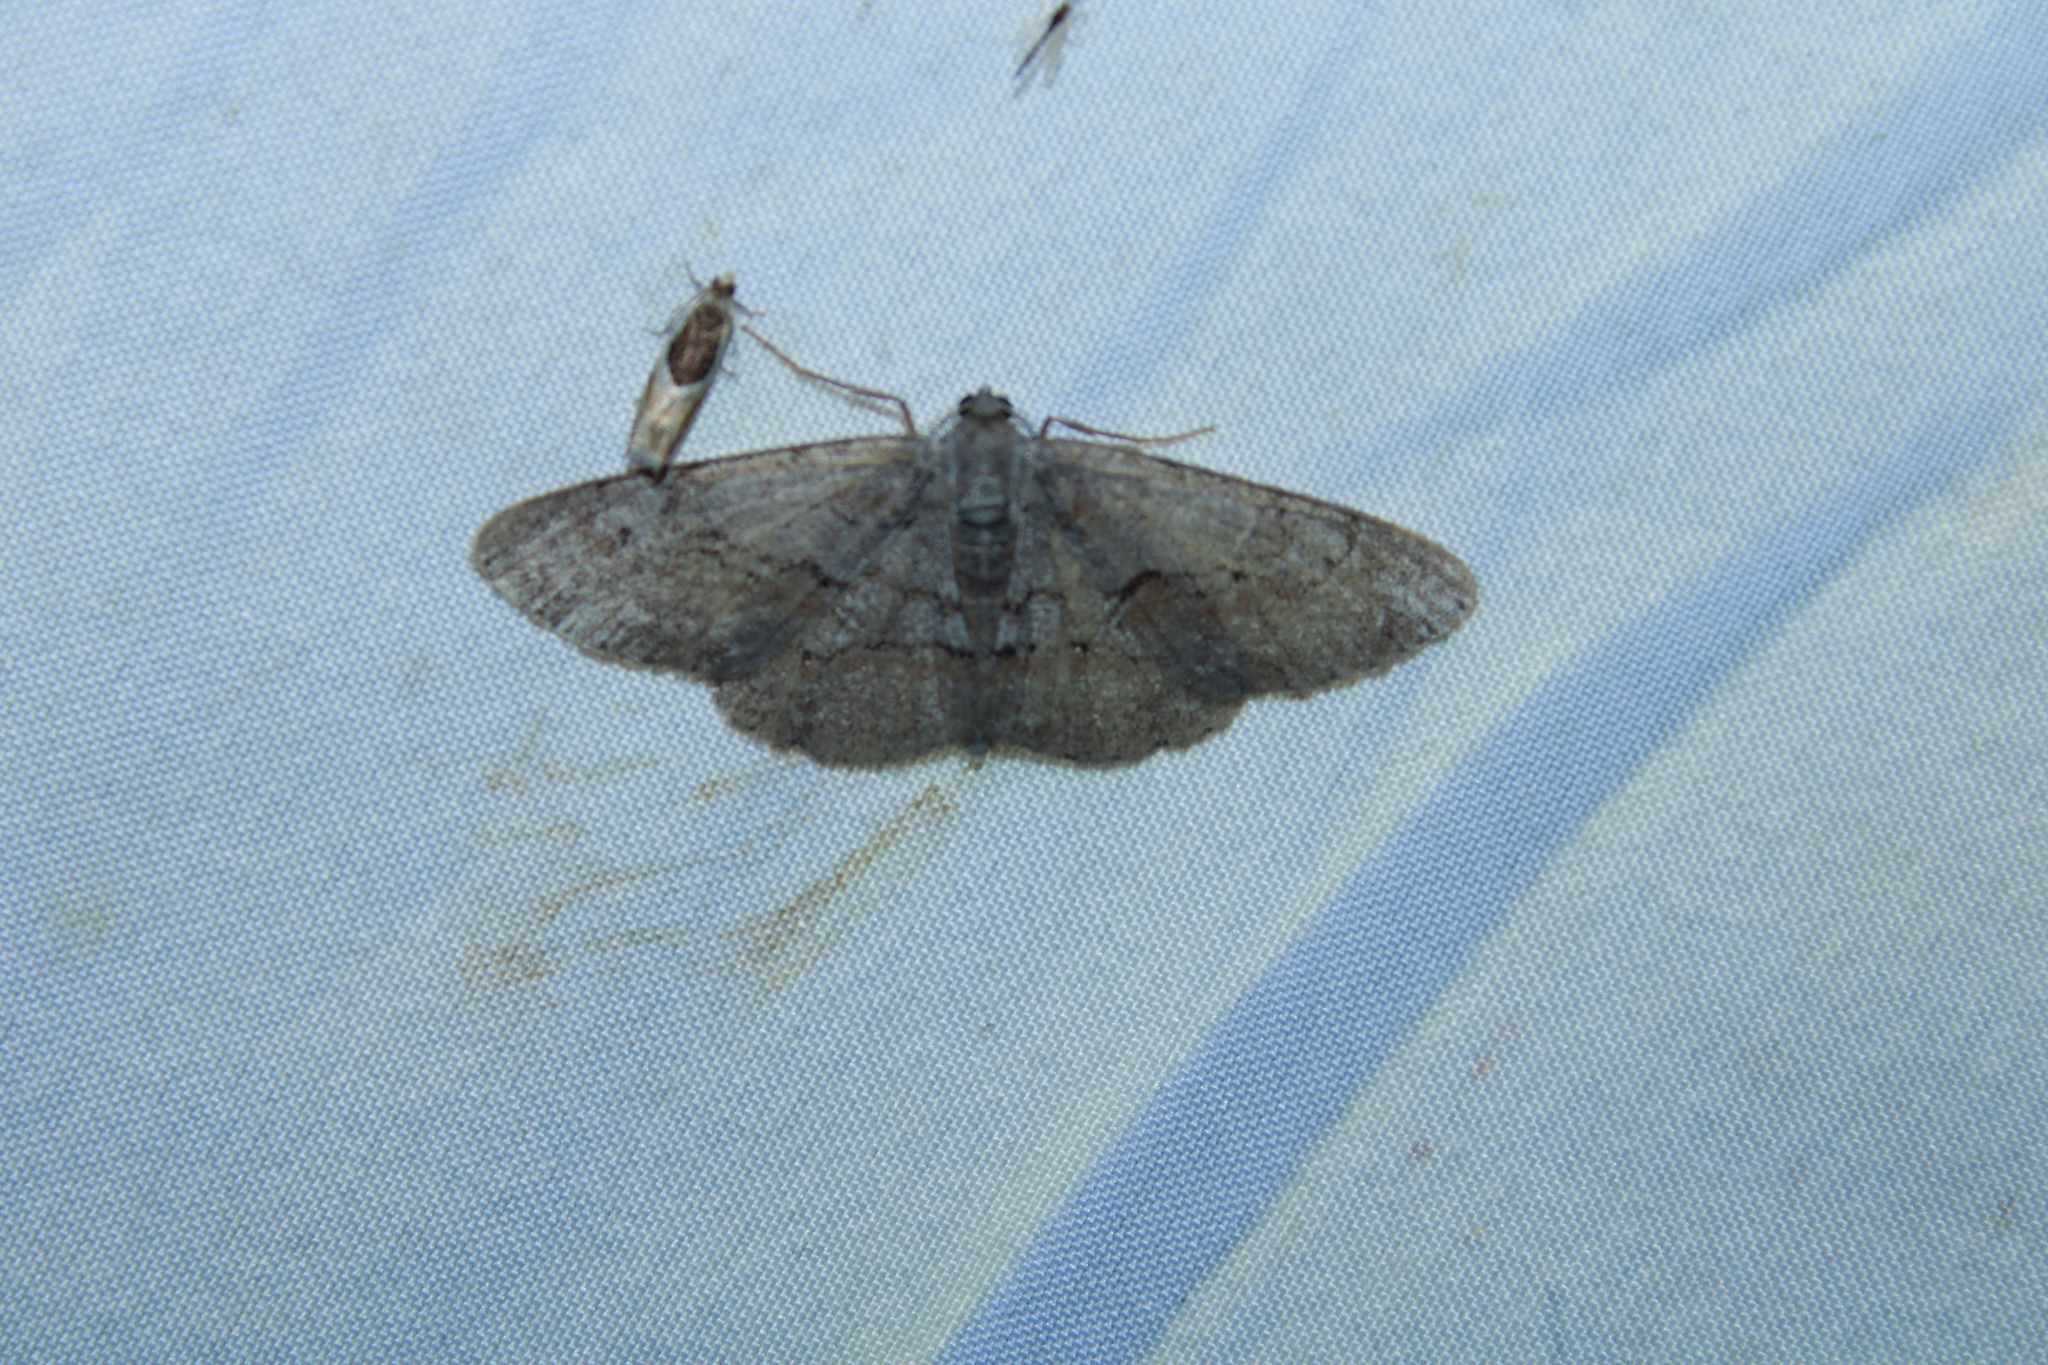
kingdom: Animalia
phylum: Arthropoda
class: Insecta
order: Lepidoptera
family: Geometridae
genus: Iridopsis
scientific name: Iridopsis vellivolata
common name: Large purplish gray
